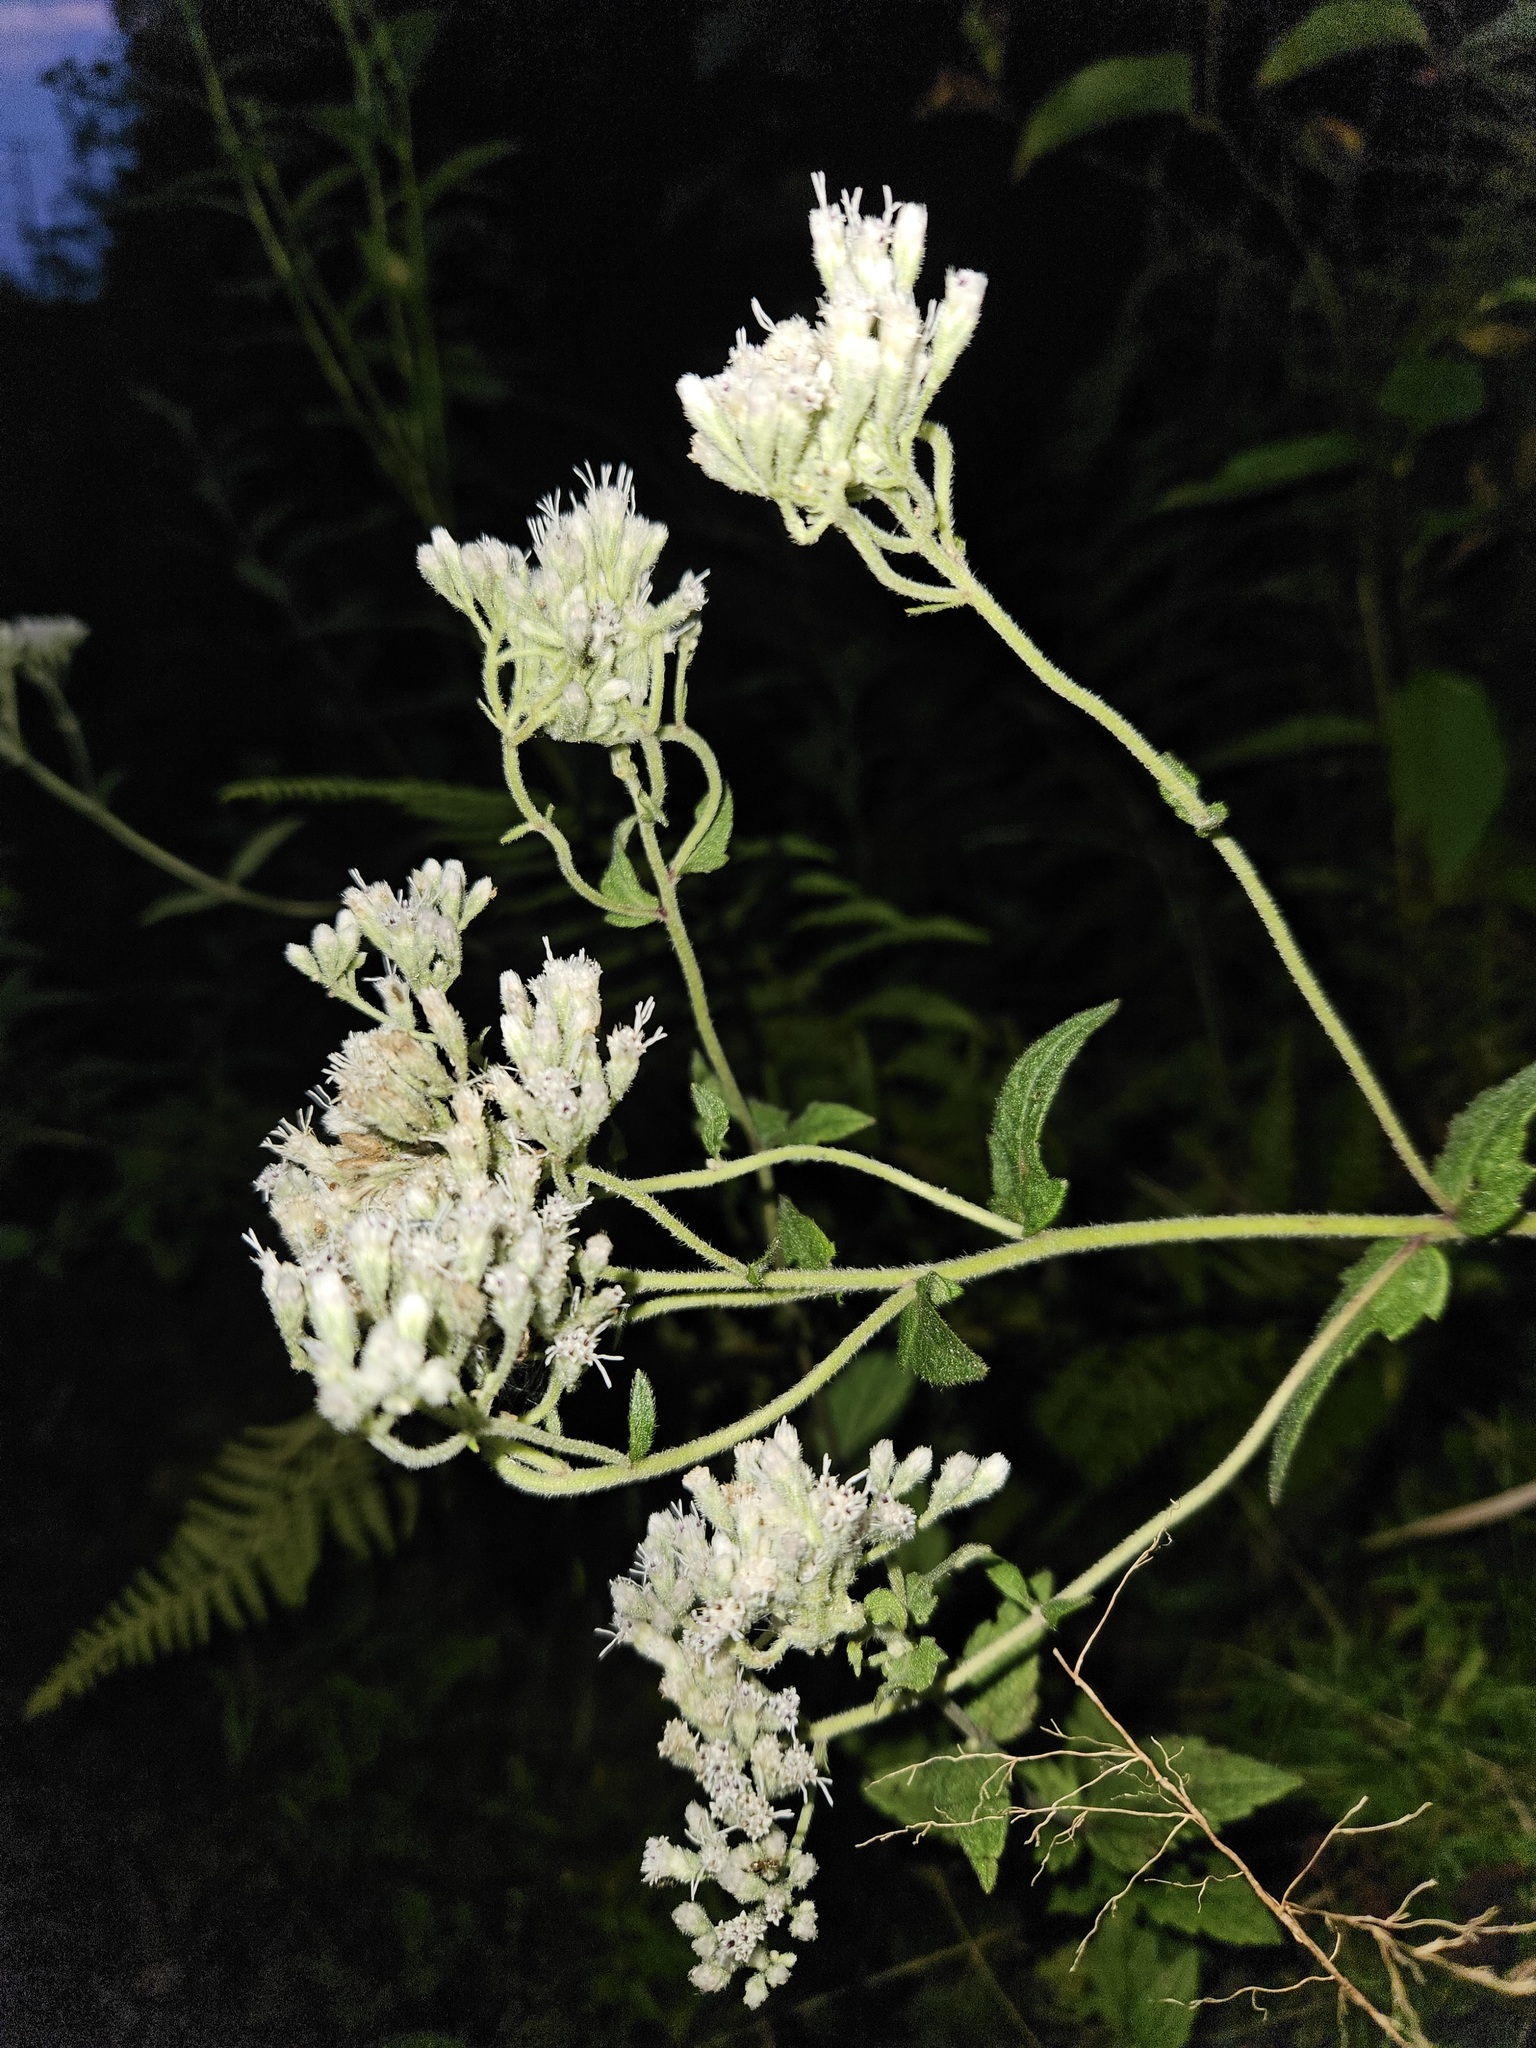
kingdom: Plantae
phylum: Tracheophyta
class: Magnoliopsida
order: Asterales
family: Asteraceae
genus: Eupatorium
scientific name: Eupatorium pilosum
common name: Rough boneset
